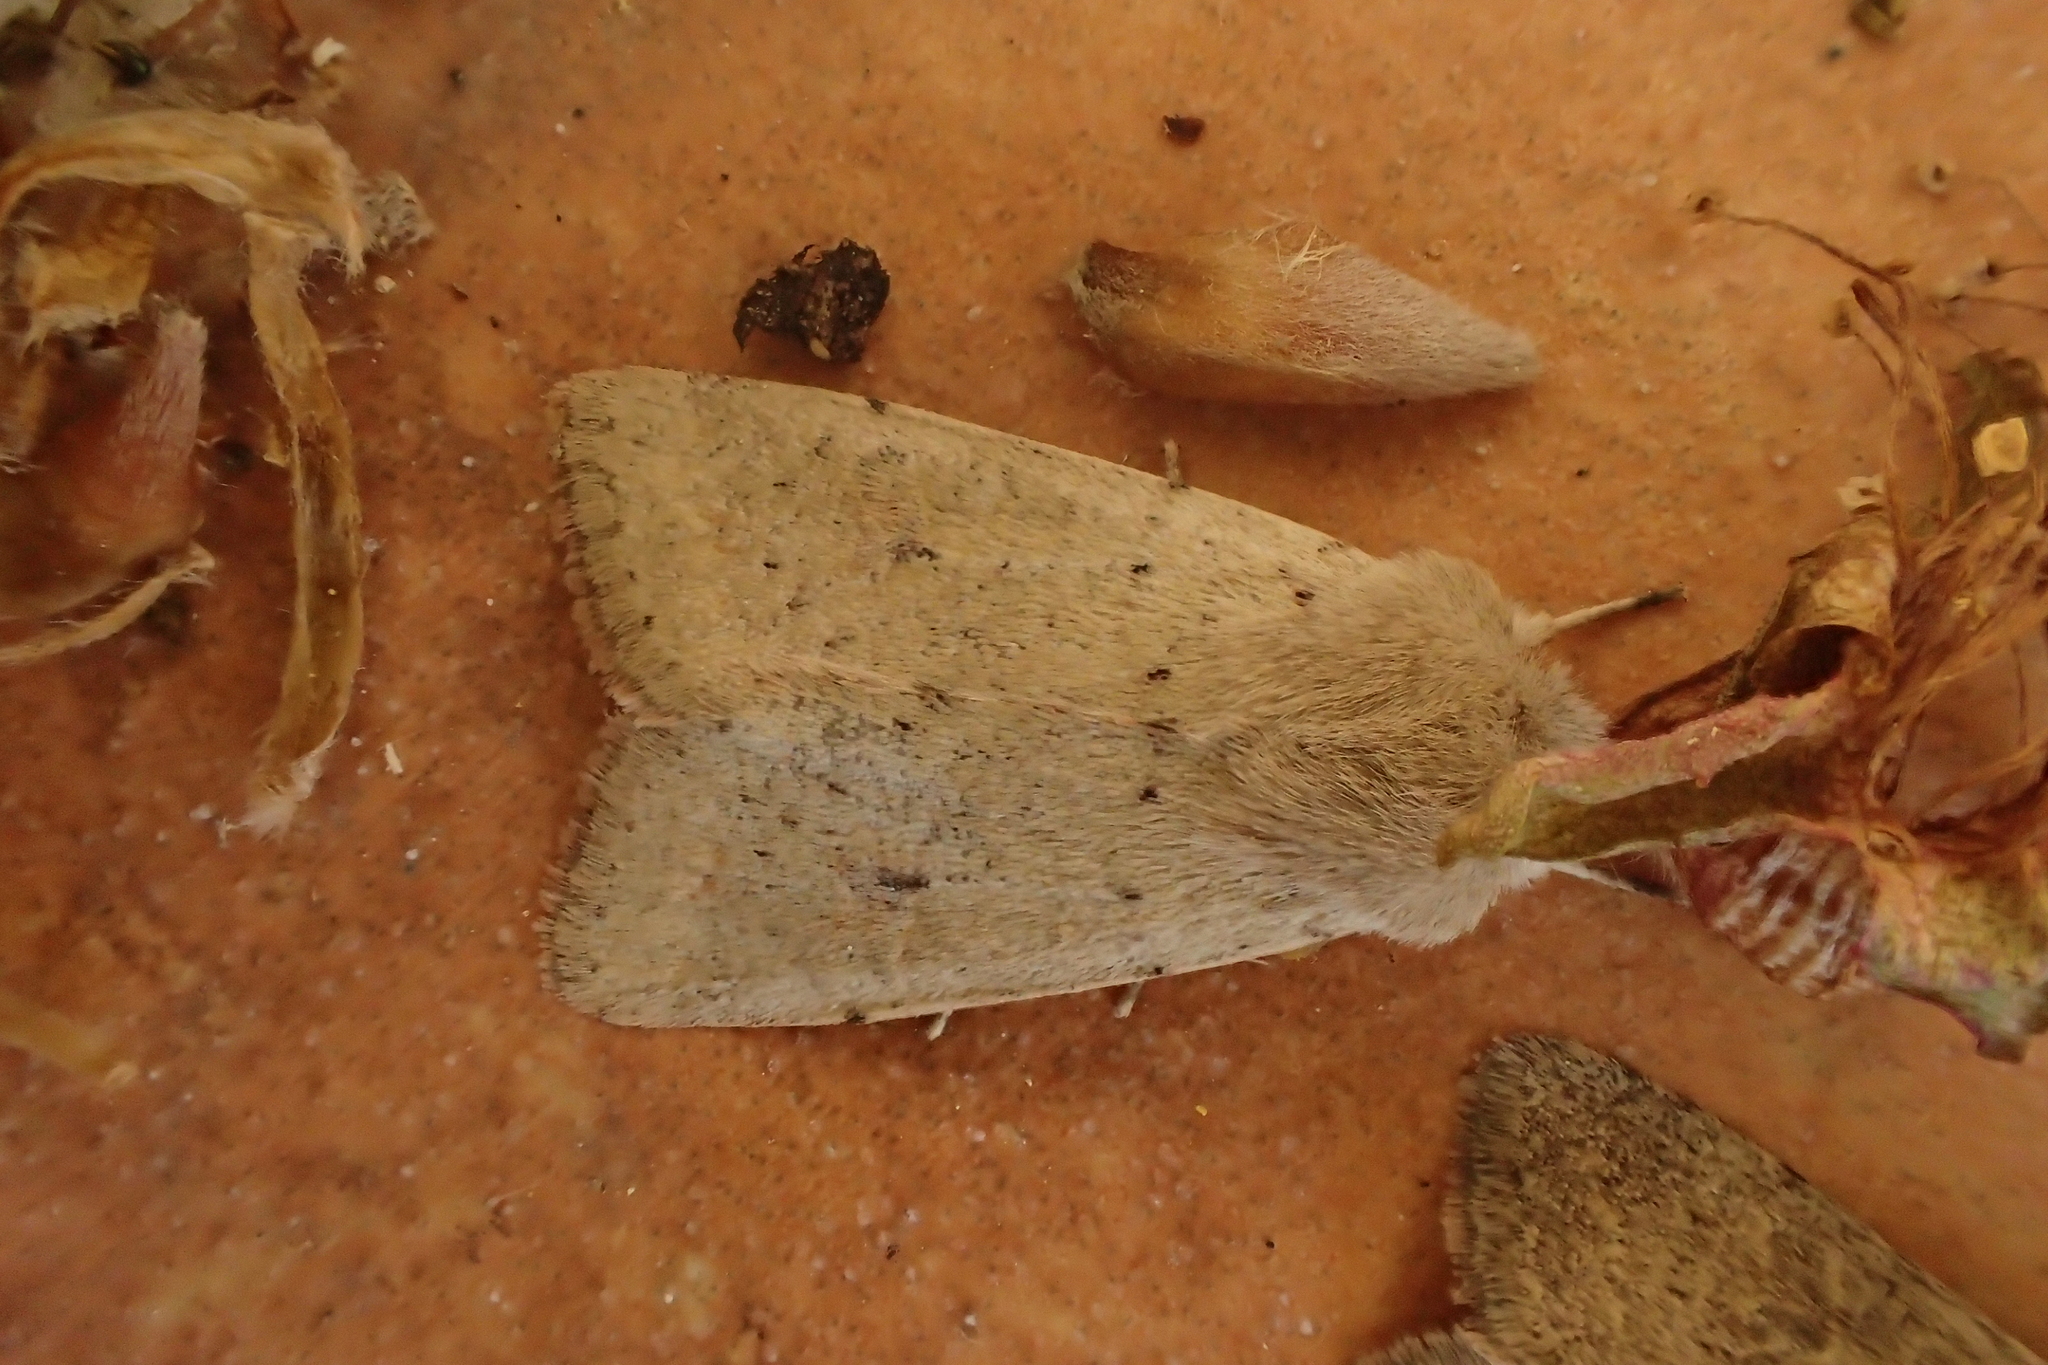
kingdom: Animalia
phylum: Arthropoda
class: Insecta
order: Lepidoptera
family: Noctuidae
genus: Orthosia
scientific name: Orthosia cruda
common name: Small quaker
